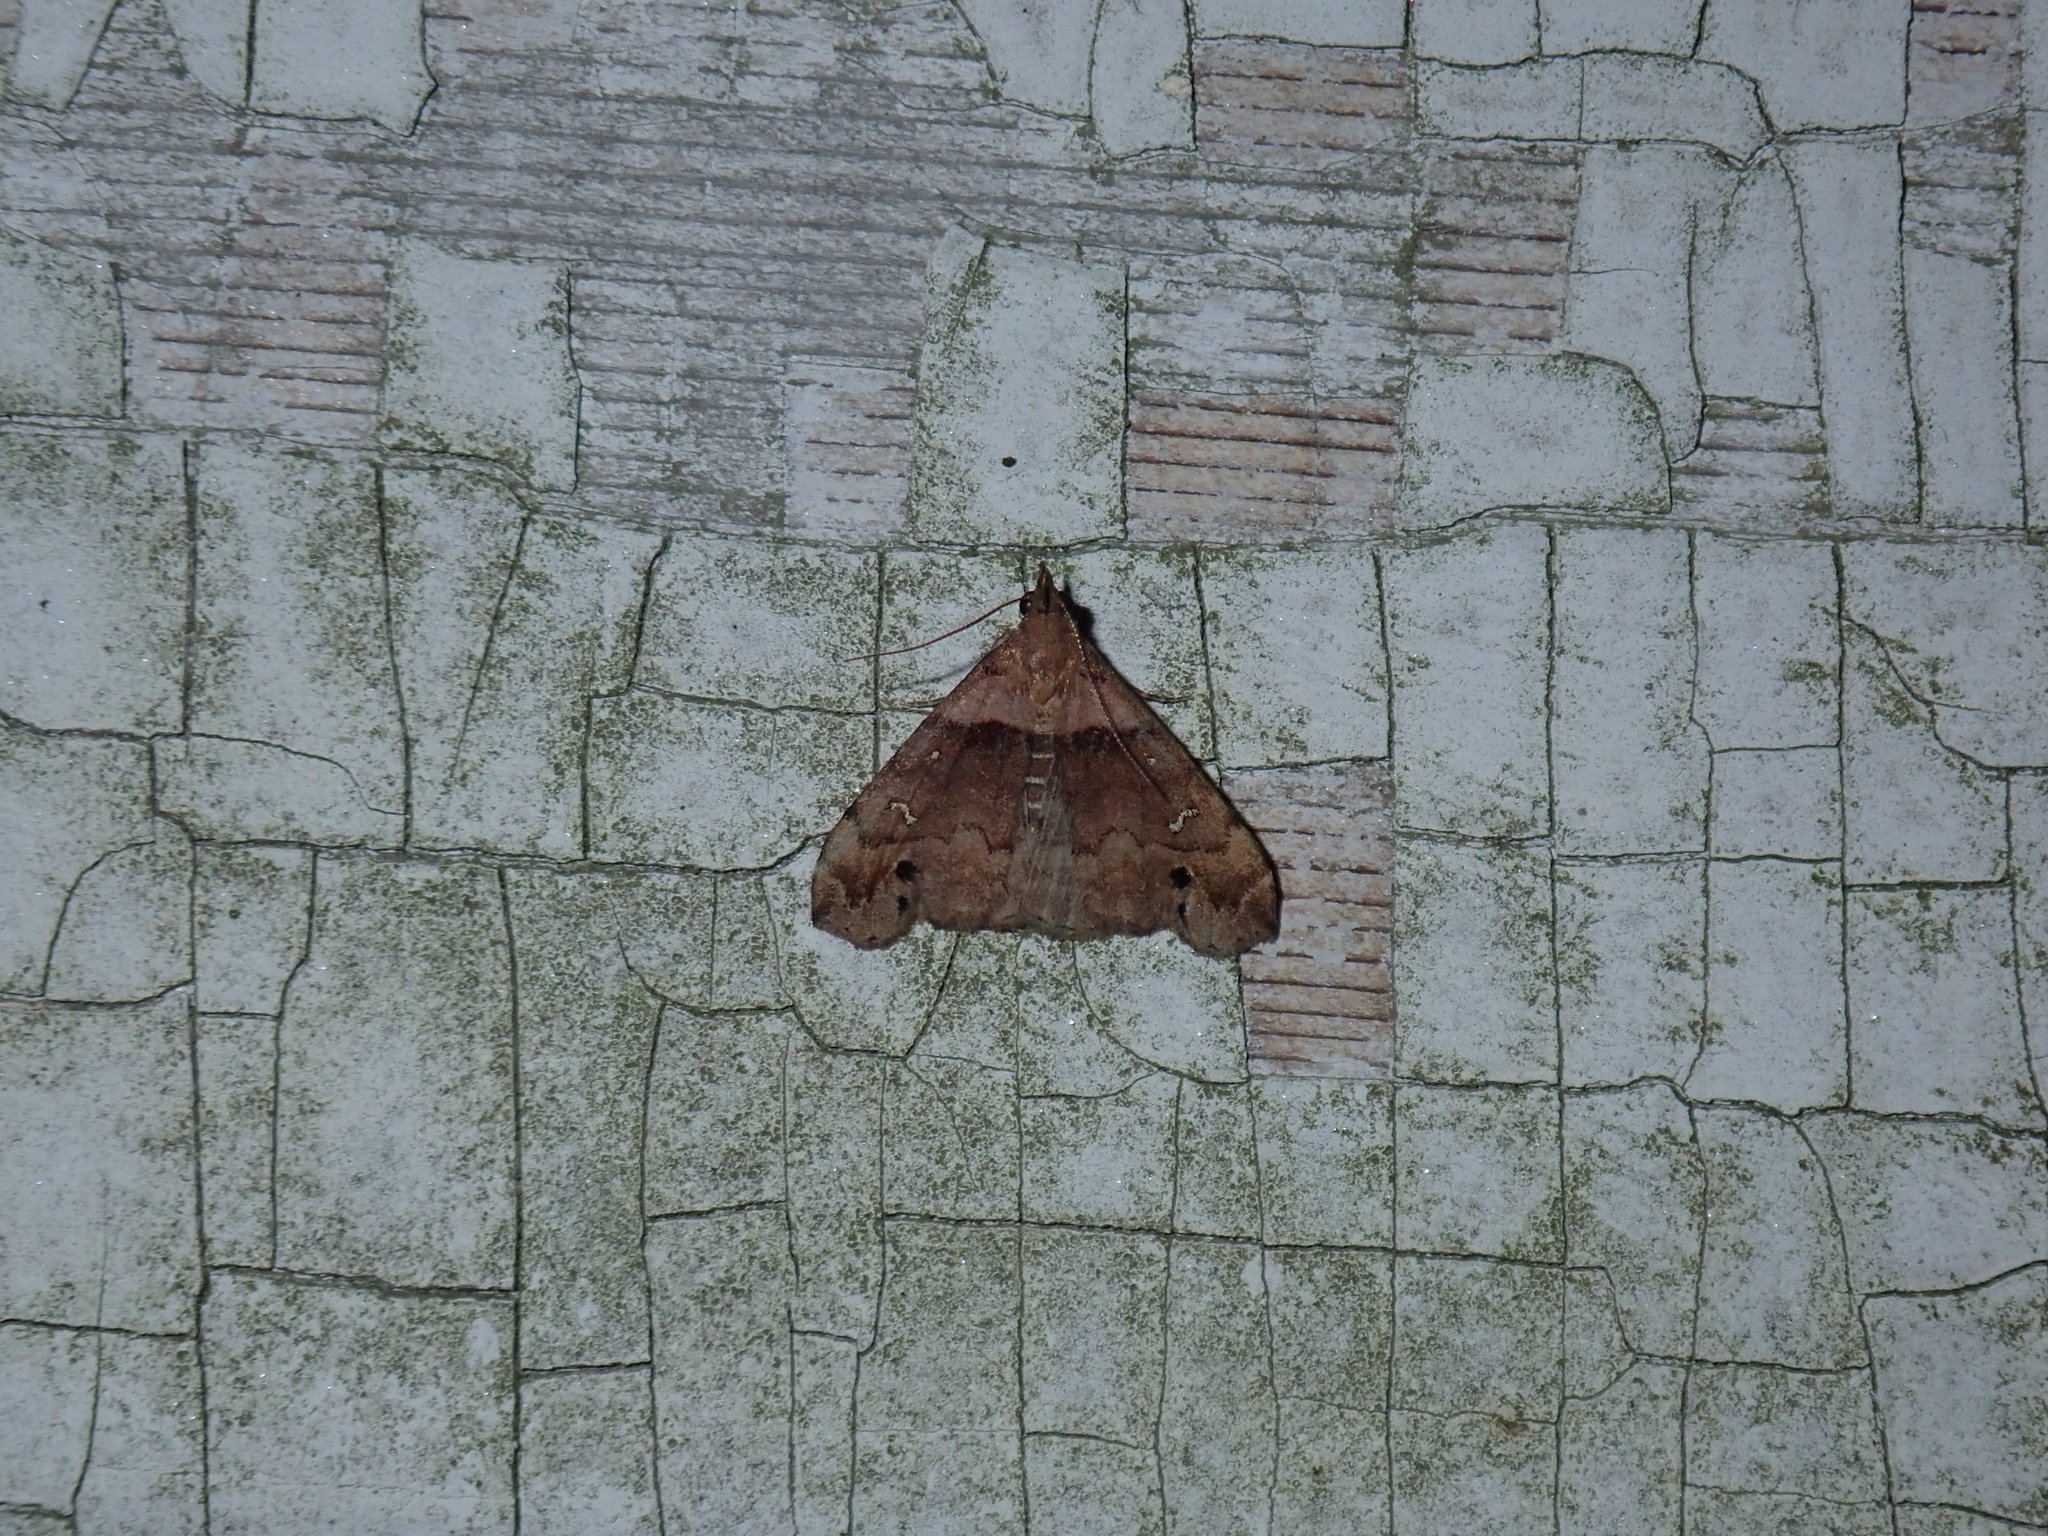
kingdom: Animalia
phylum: Arthropoda
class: Insecta
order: Lepidoptera
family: Erebidae
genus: Lascoria
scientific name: Lascoria ambigualis
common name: Ambiguous moth
